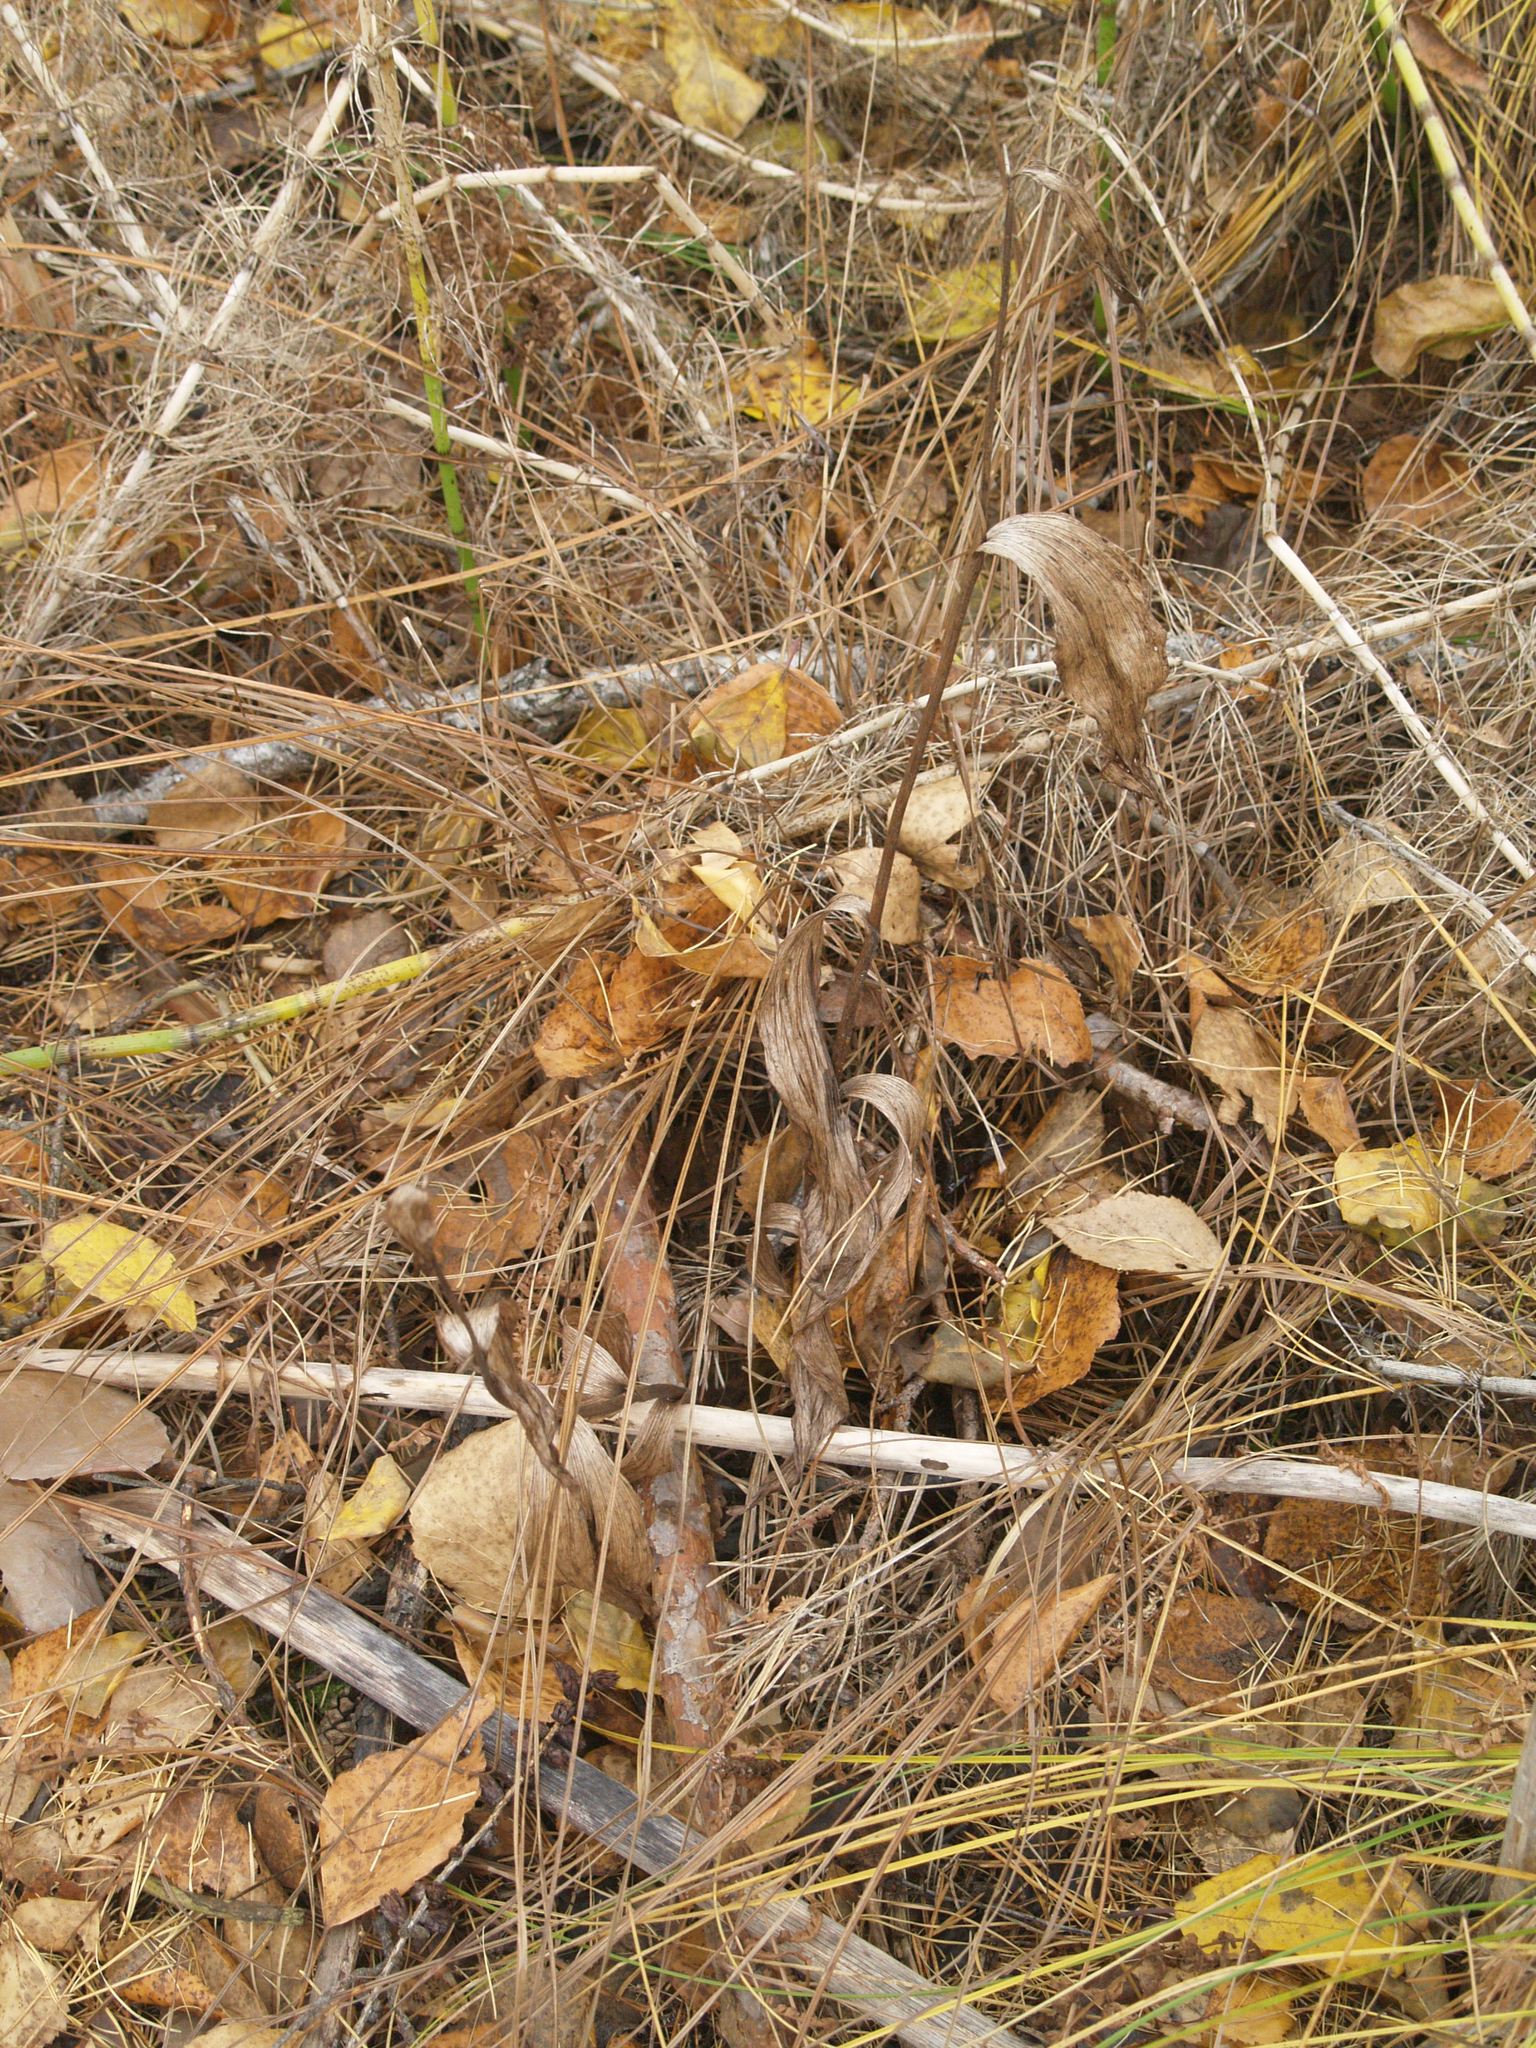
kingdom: Plantae
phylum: Tracheophyta
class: Liliopsida
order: Asparagales
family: Orchidaceae
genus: Cypripedium
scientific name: Cypripedium calceolus
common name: Lady's-slipper
